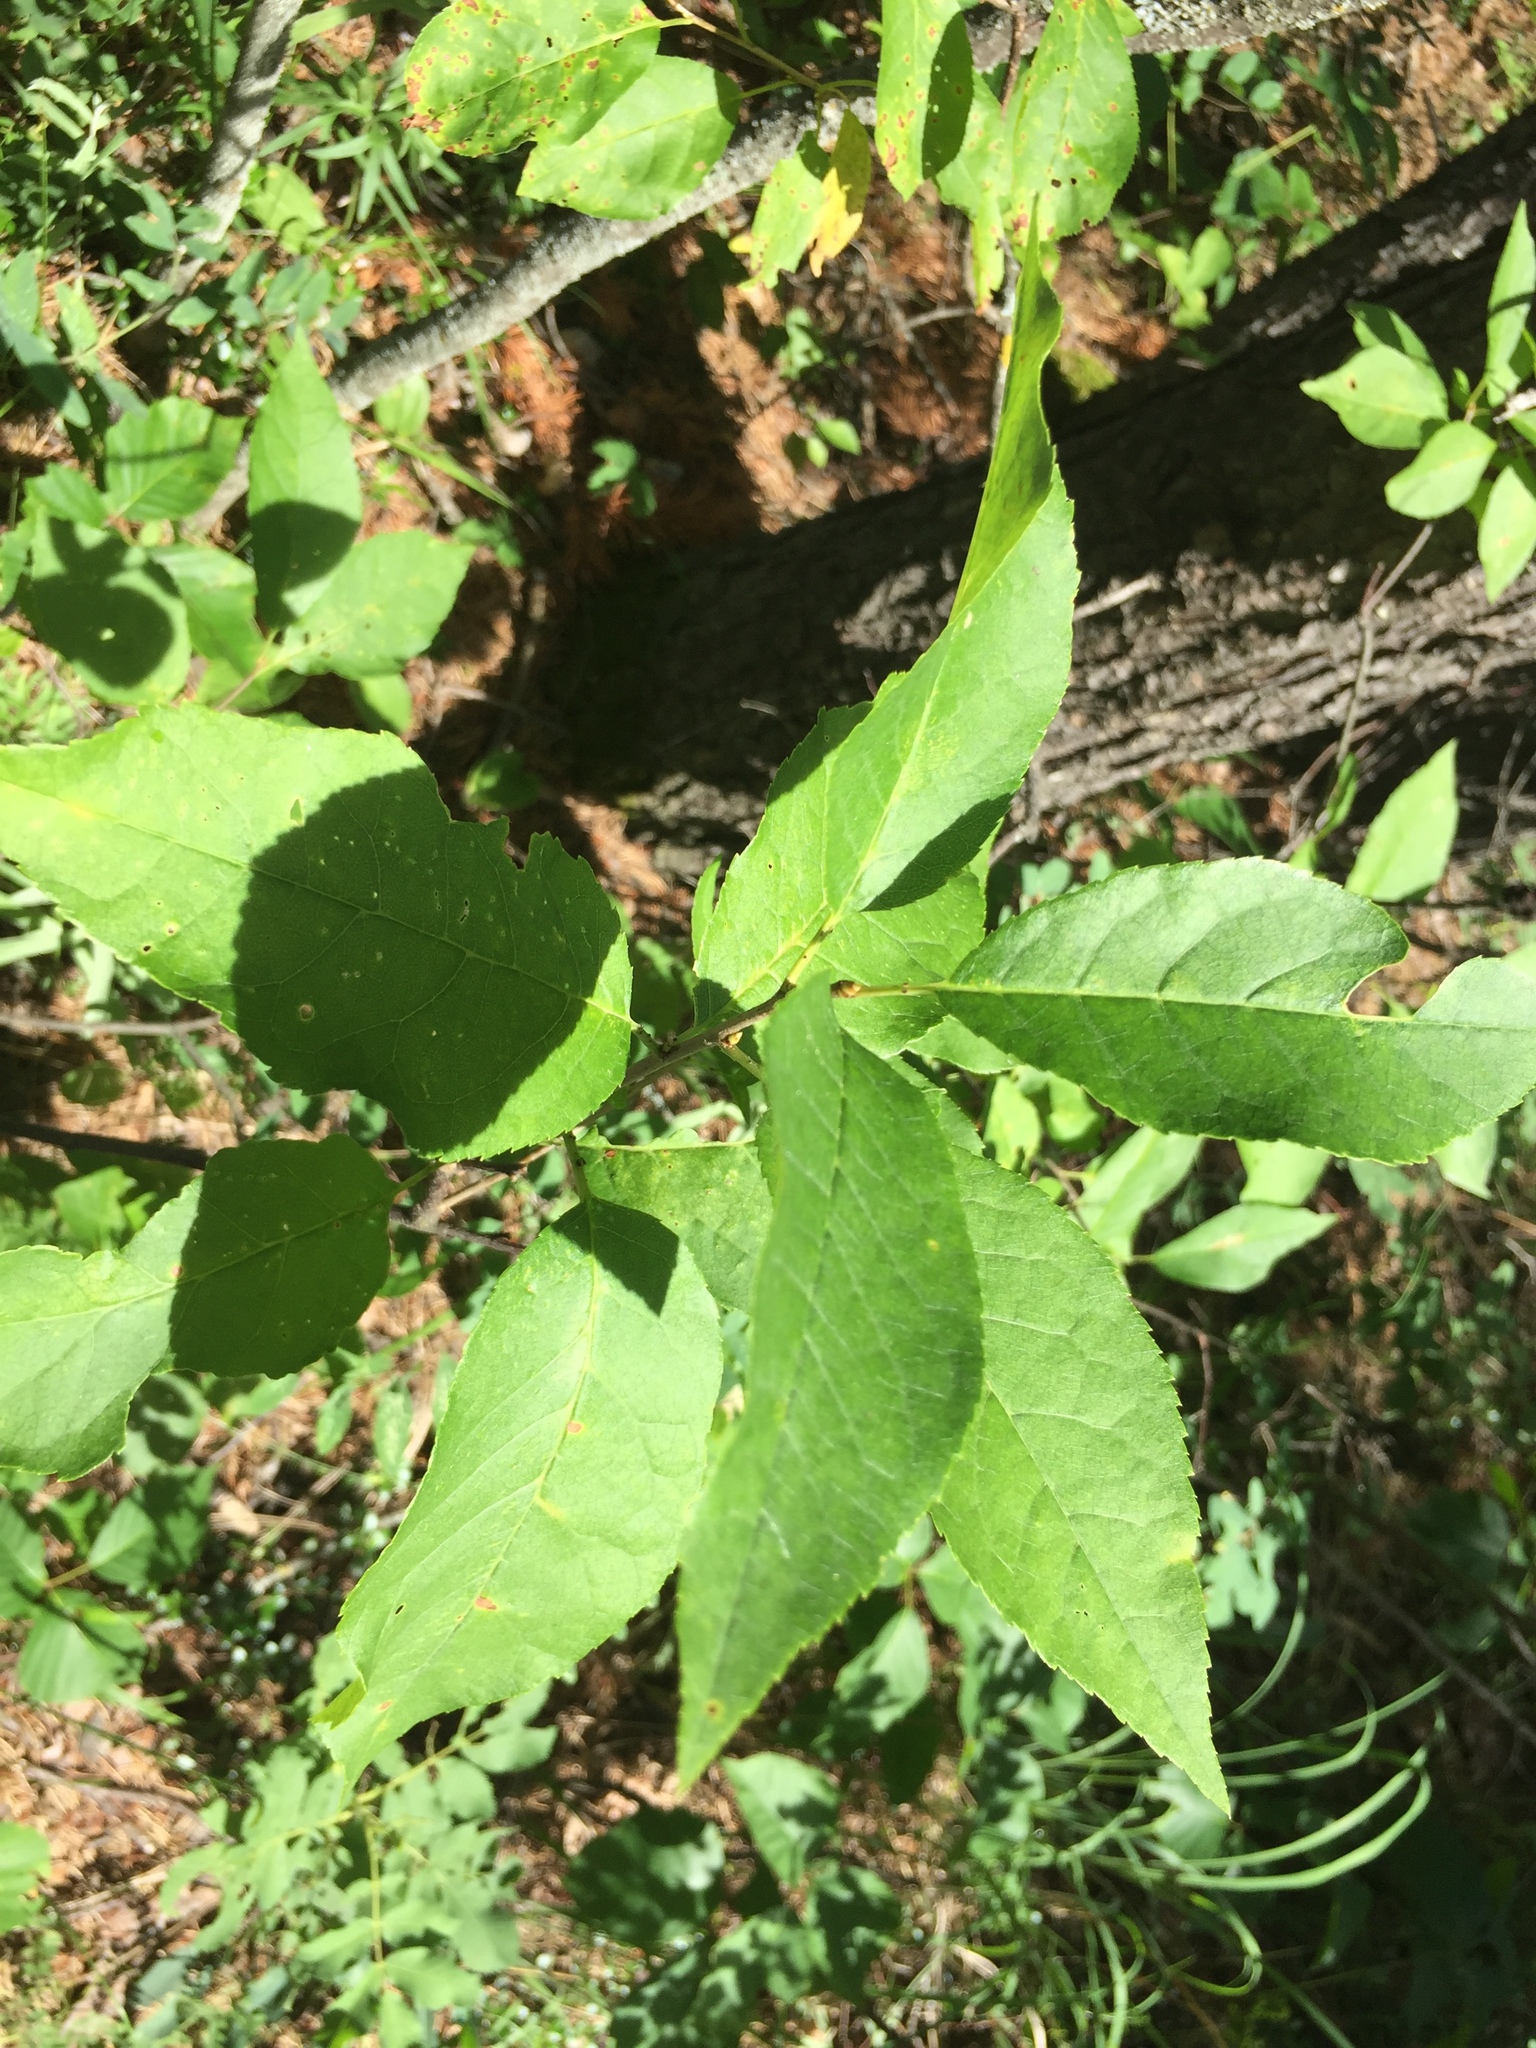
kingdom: Plantae
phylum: Tracheophyta
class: Magnoliopsida
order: Rosales
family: Rosaceae
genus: Prunus
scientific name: Prunus virginiana
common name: Chokecherry
